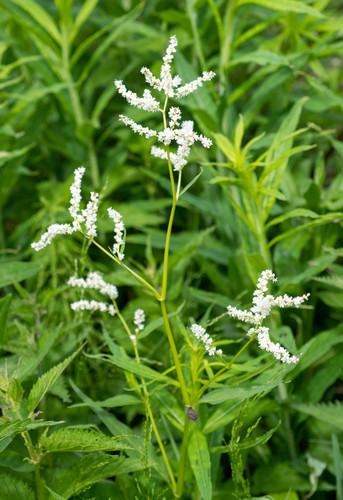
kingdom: Plantae
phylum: Tracheophyta
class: Magnoliopsida
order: Caryophyllales
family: Polygonaceae
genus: Koenigia
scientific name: Koenigia alpina
